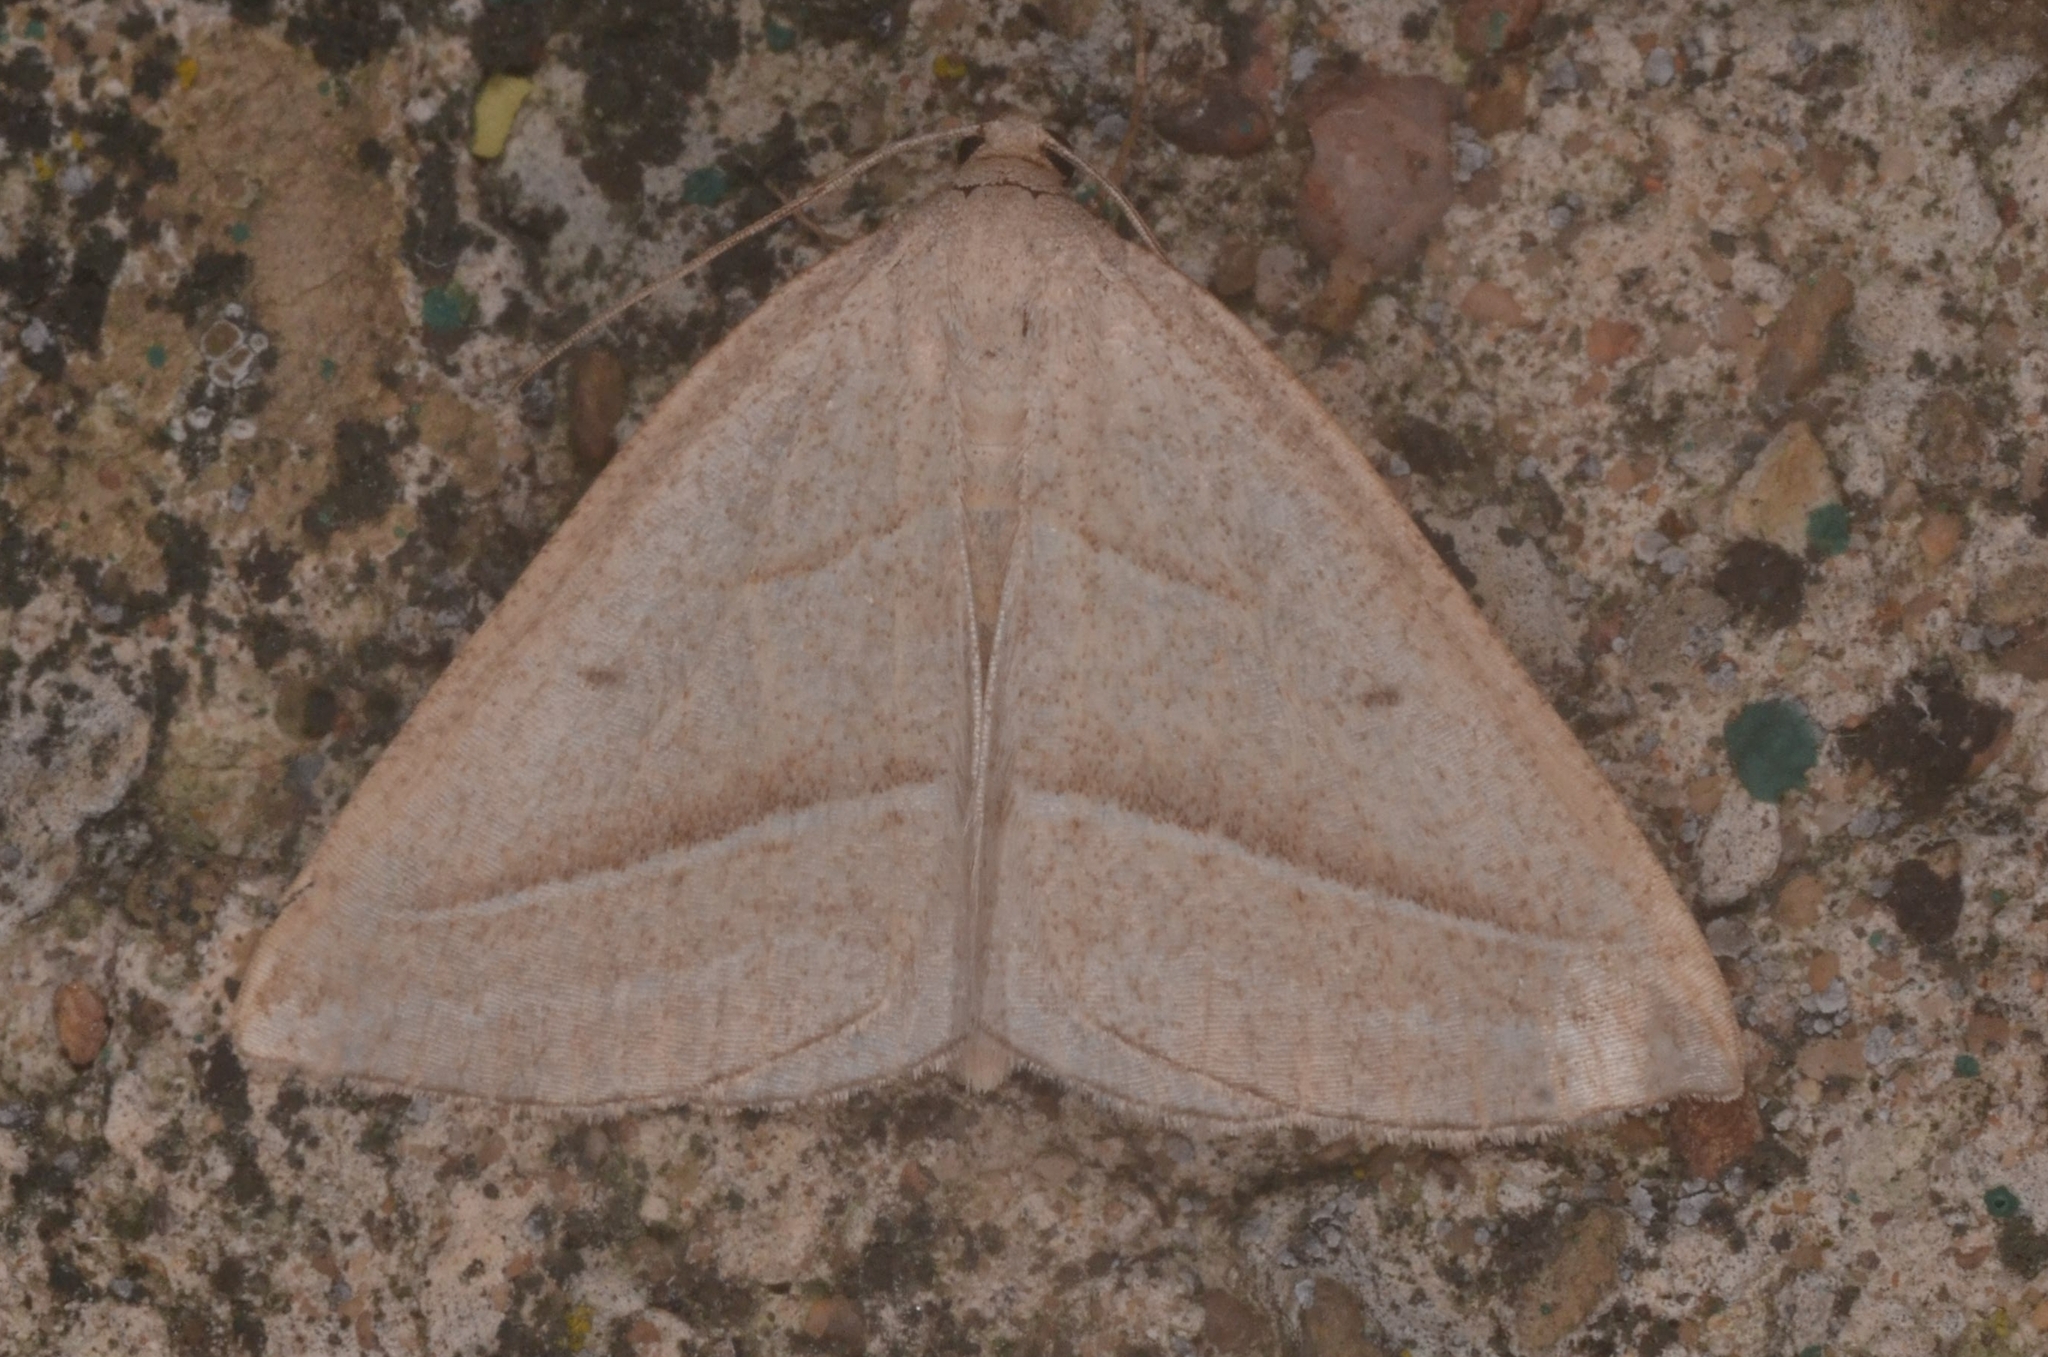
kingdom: Animalia
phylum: Arthropoda
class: Insecta
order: Lepidoptera
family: Pterophoridae
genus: Pterophorus
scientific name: Pterophorus Petrophora chlorosata
